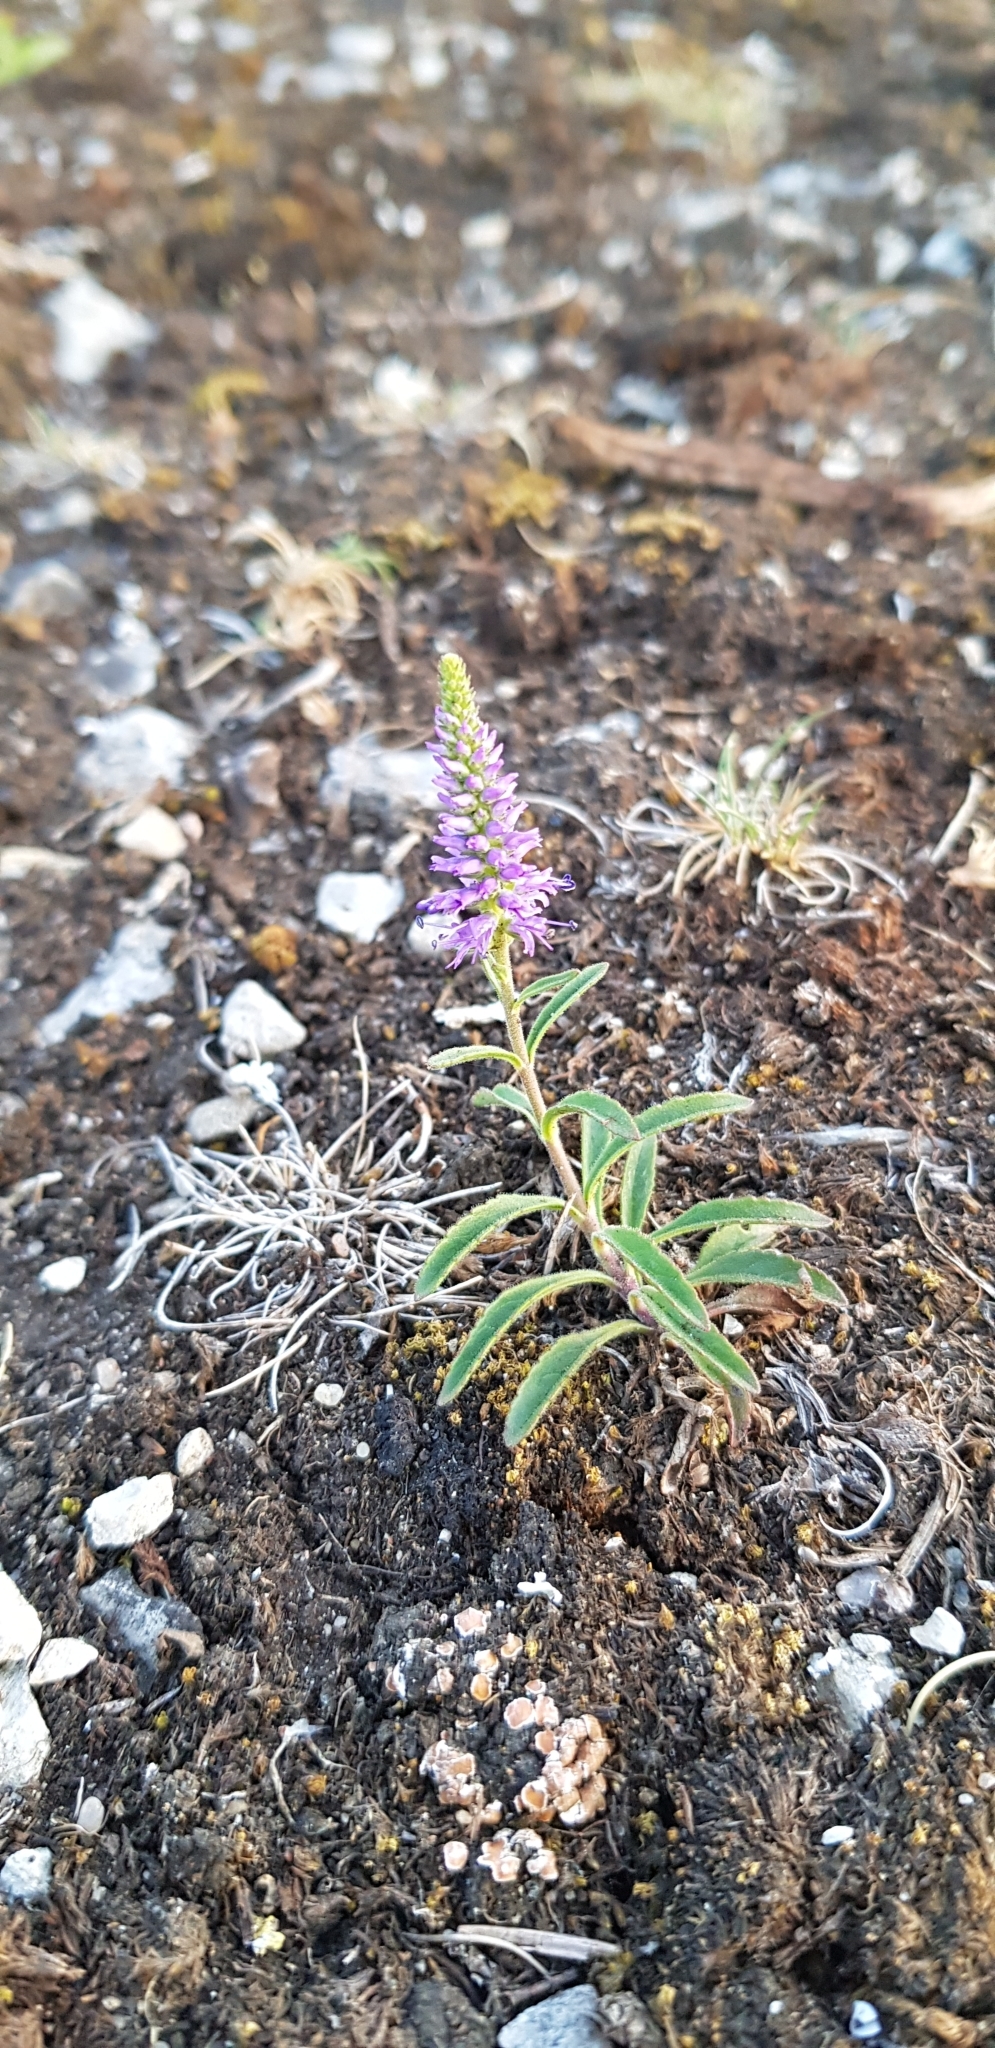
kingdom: Plantae
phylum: Tracheophyta
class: Magnoliopsida
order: Lamiales
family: Plantaginaceae
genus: Veronica
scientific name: Veronica spicata
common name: Spiked speedwell
